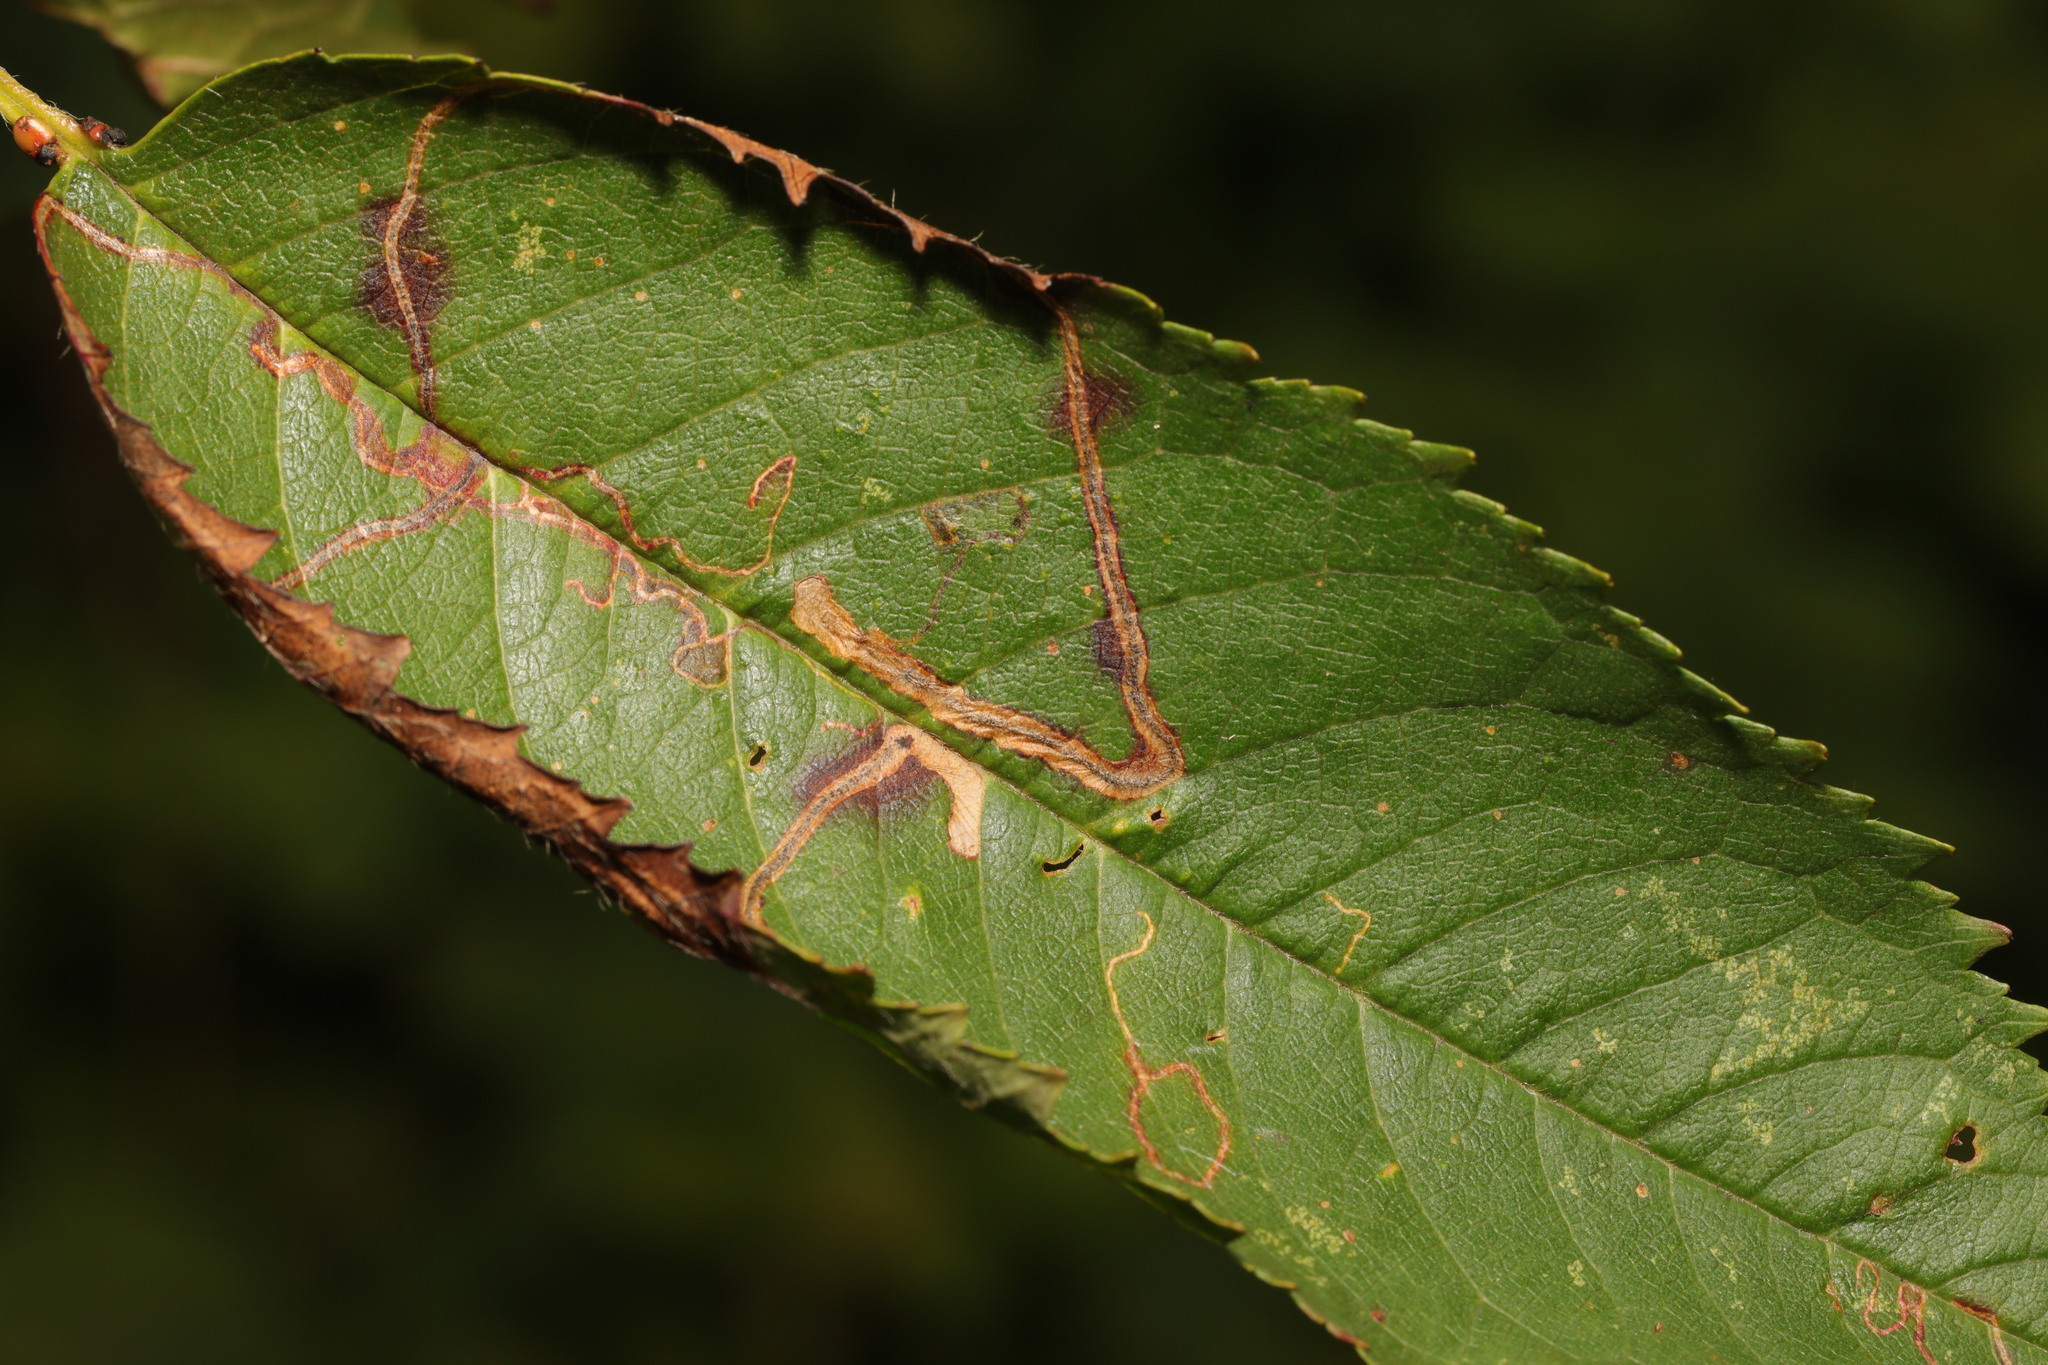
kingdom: Animalia
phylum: Arthropoda
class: Insecta
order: Lepidoptera
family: Lyonetiidae
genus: Lyonetia
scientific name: Lyonetia clerkella
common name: Apple leaf miner
